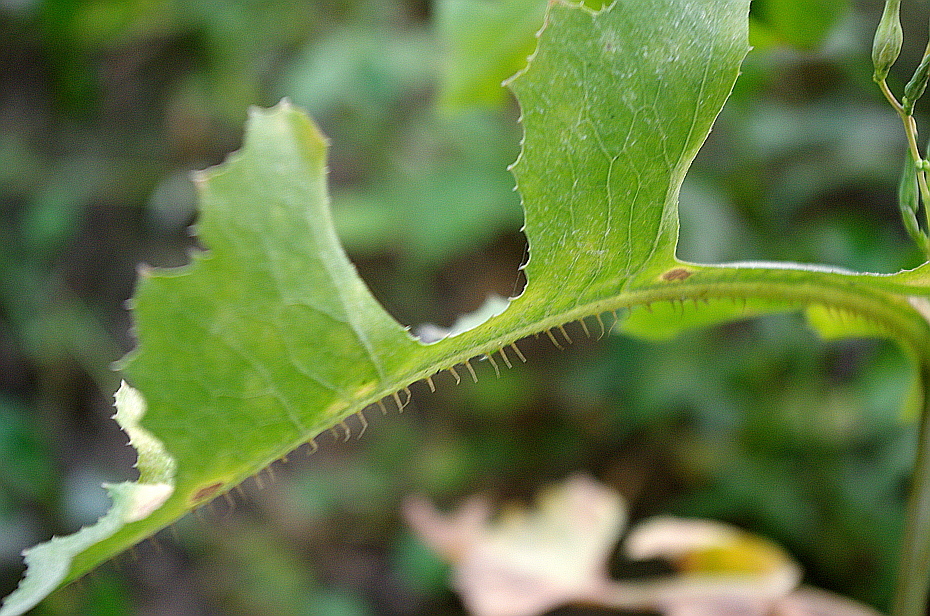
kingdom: Plantae
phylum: Tracheophyta
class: Magnoliopsida
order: Asterales
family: Asteraceae
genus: Lactuca
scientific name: Lactuca serriola
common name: Prickly lettuce
